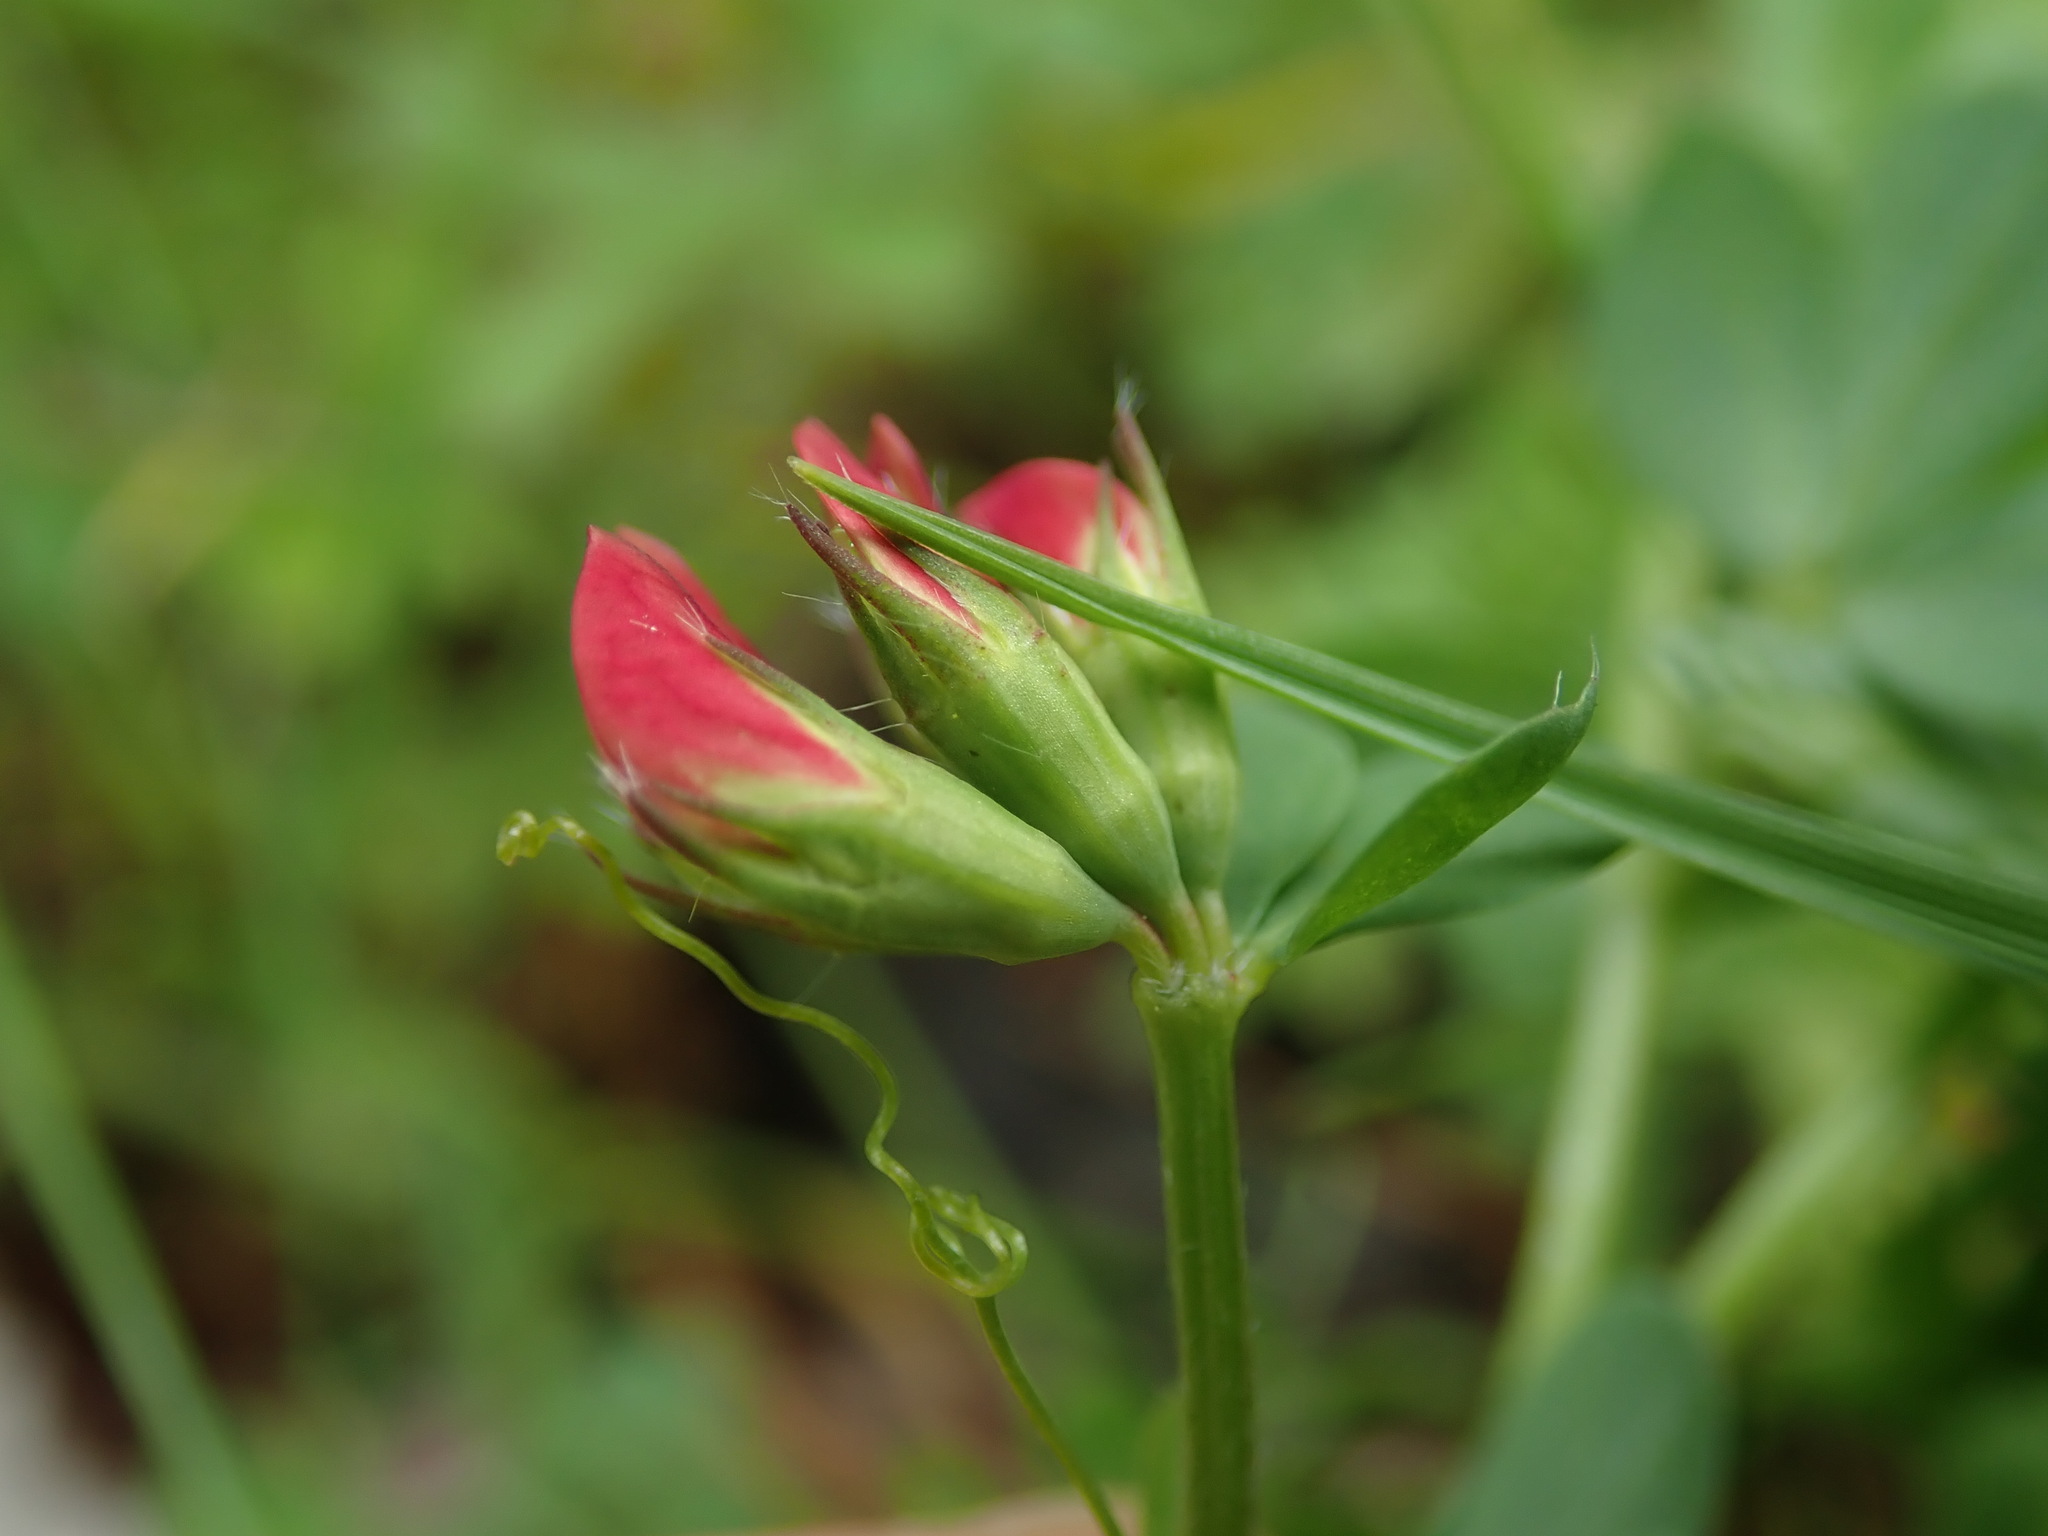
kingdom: Plantae
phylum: Tracheophyta
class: Magnoliopsida
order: Fabales
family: Fabaceae
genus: Lotus
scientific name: Lotus corniculatus
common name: Common bird's-foot-trefoil
